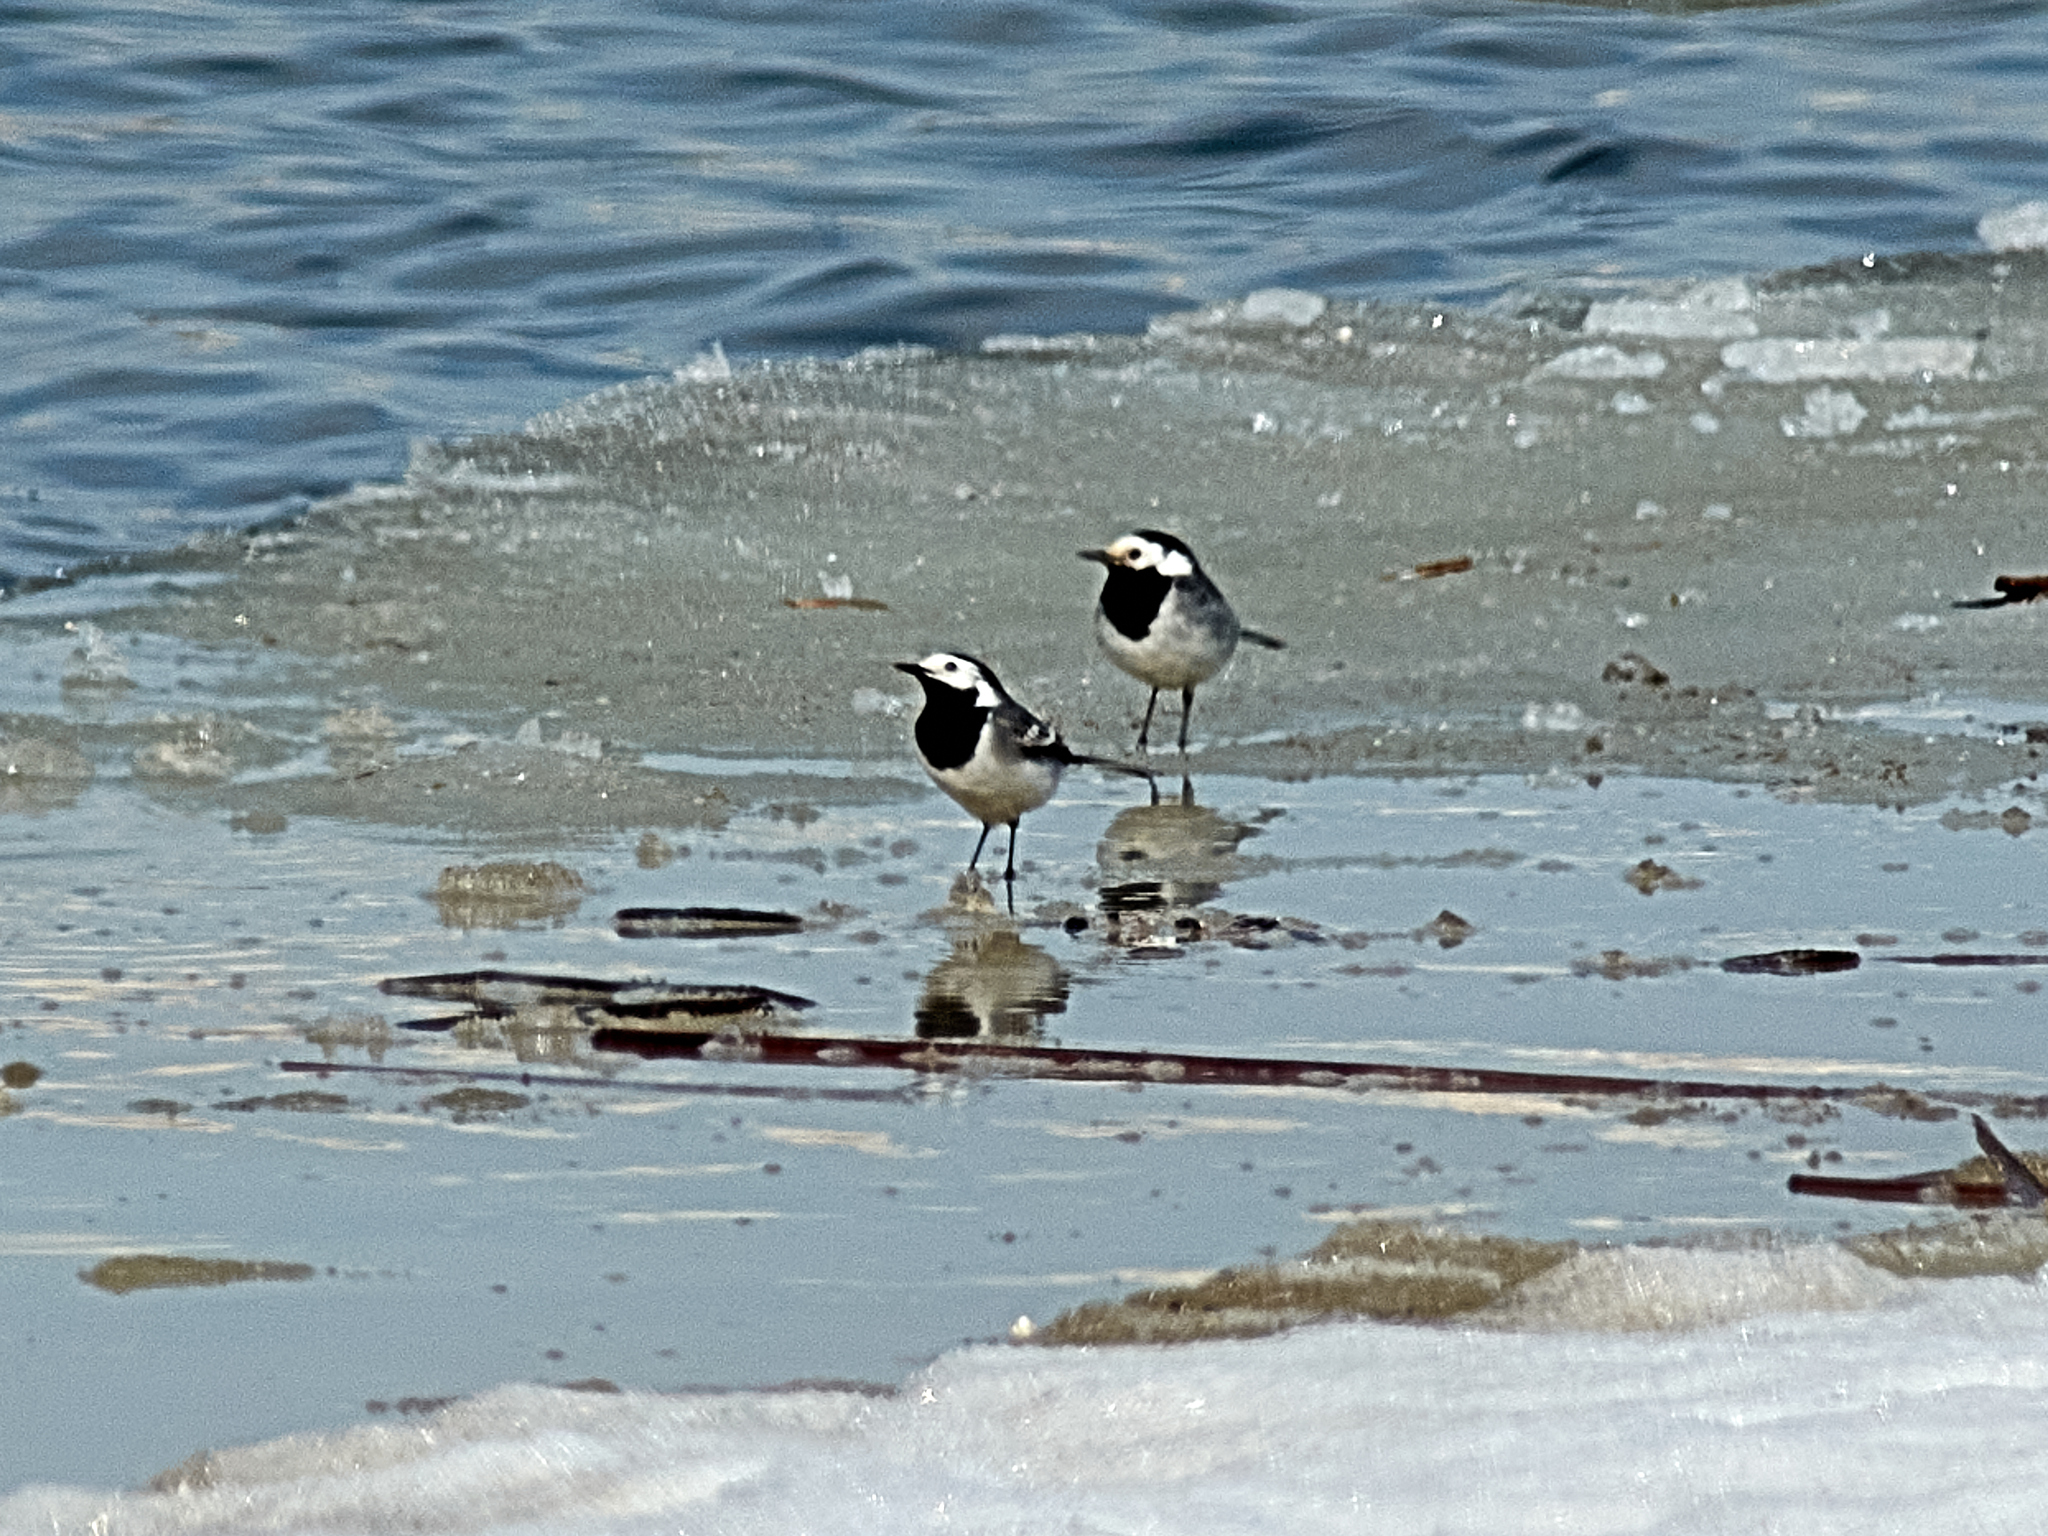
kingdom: Animalia
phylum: Chordata
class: Aves
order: Passeriformes
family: Motacillidae
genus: Motacilla
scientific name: Motacilla alba
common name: White wagtail
